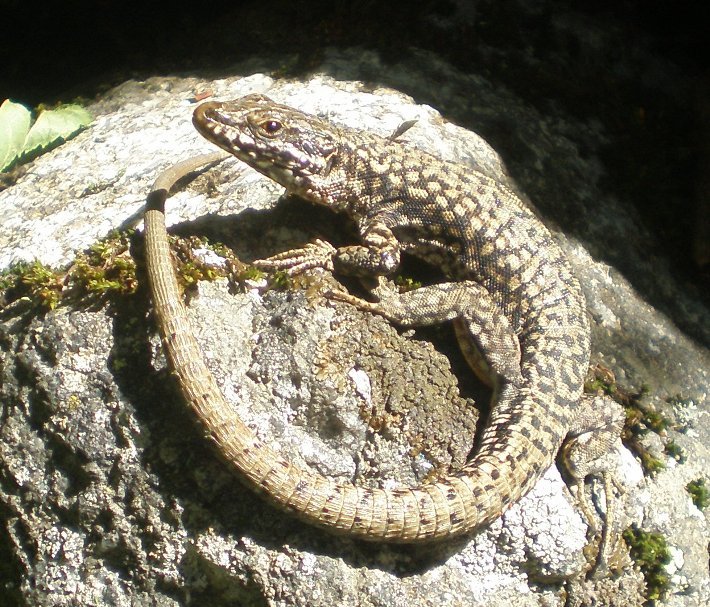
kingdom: Animalia
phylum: Chordata
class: Squamata
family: Lacertidae
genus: Podarcis
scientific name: Podarcis muralis
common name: Common wall lizard
